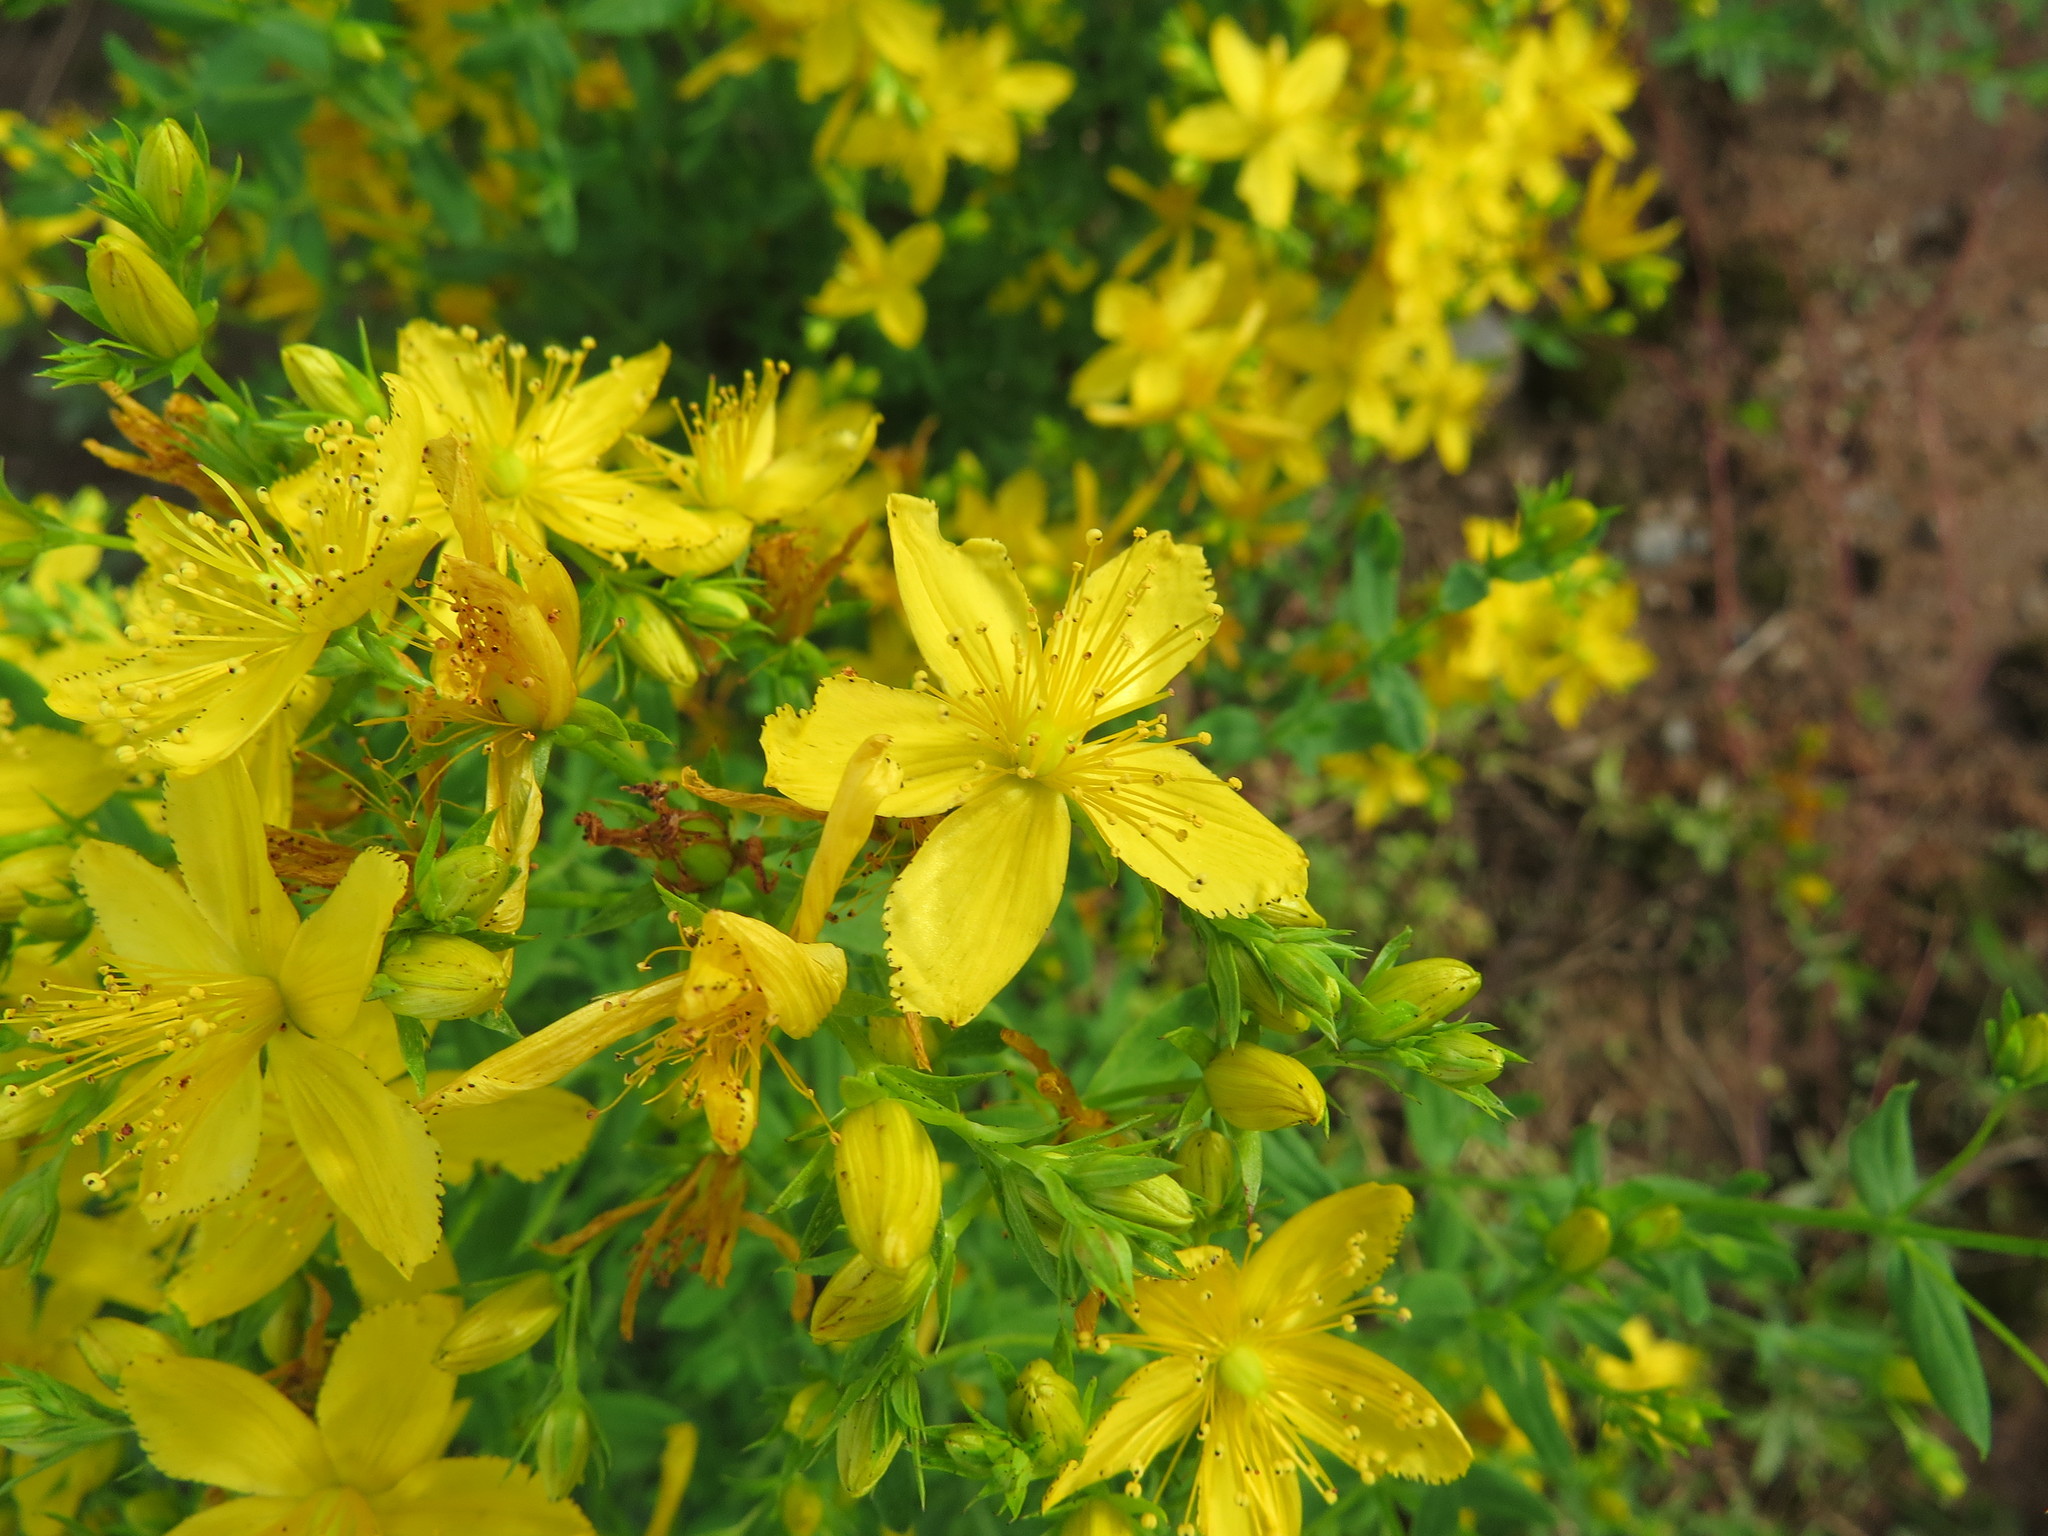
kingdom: Plantae
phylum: Tracheophyta
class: Magnoliopsida
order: Malpighiales
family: Hypericaceae
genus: Hypericum
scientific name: Hypericum perforatum
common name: Common st. johnswort
